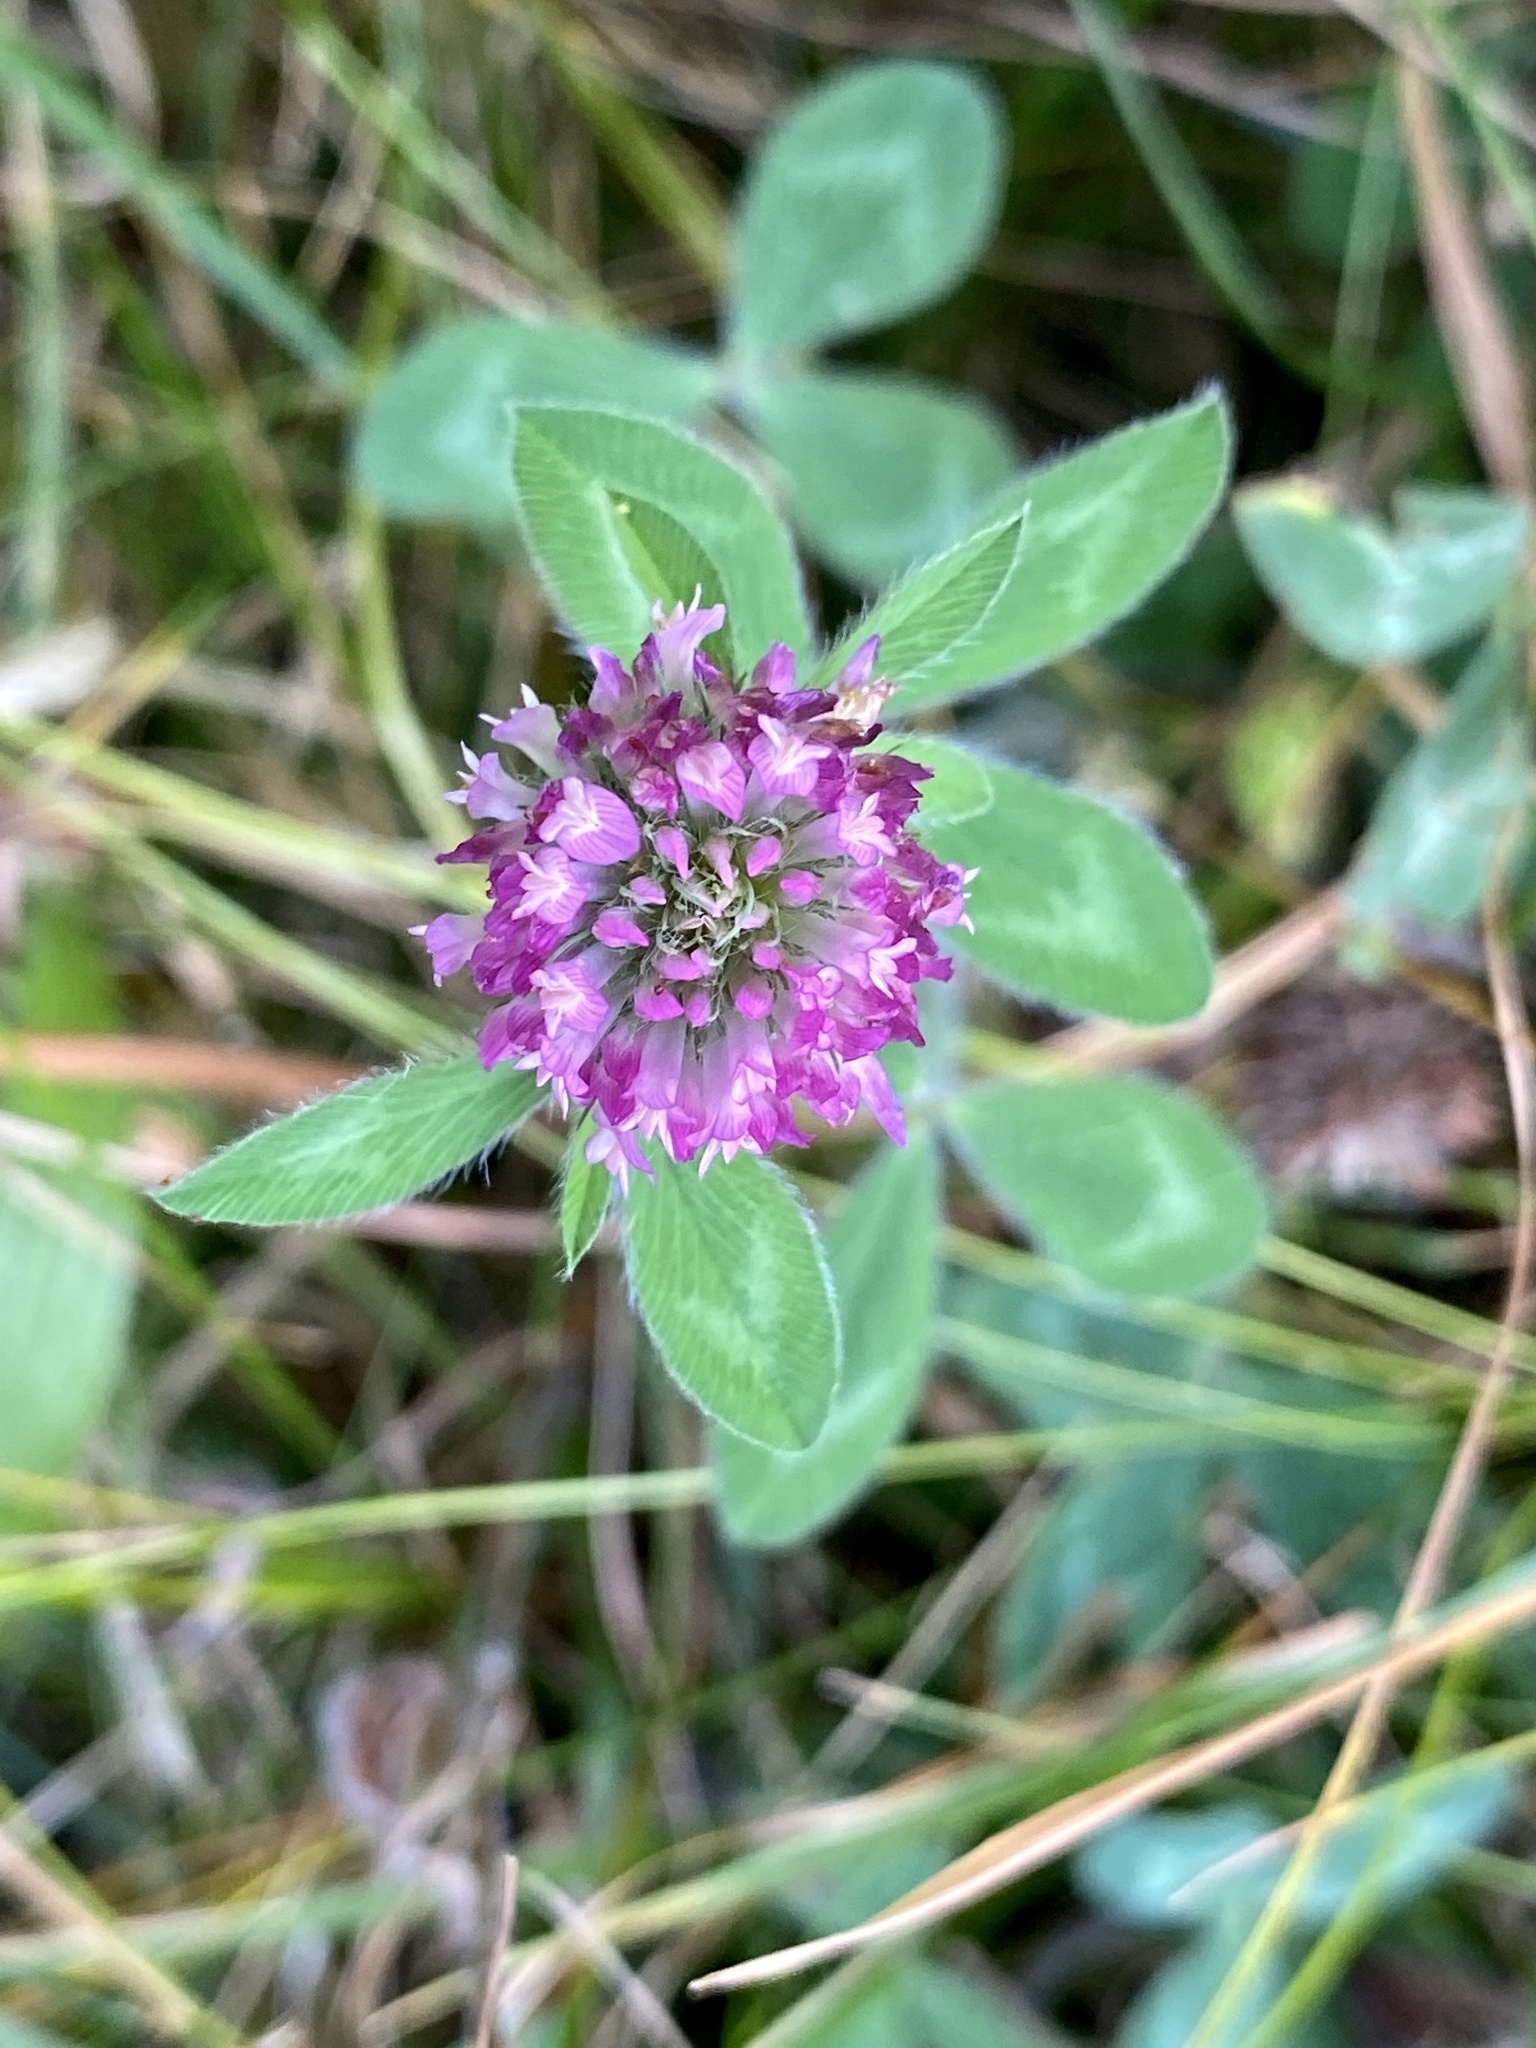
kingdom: Plantae
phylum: Tracheophyta
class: Magnoliopsida
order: Fabales
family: Fabaceae
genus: Trifolium
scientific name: Trifolium pratense
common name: Red clover
